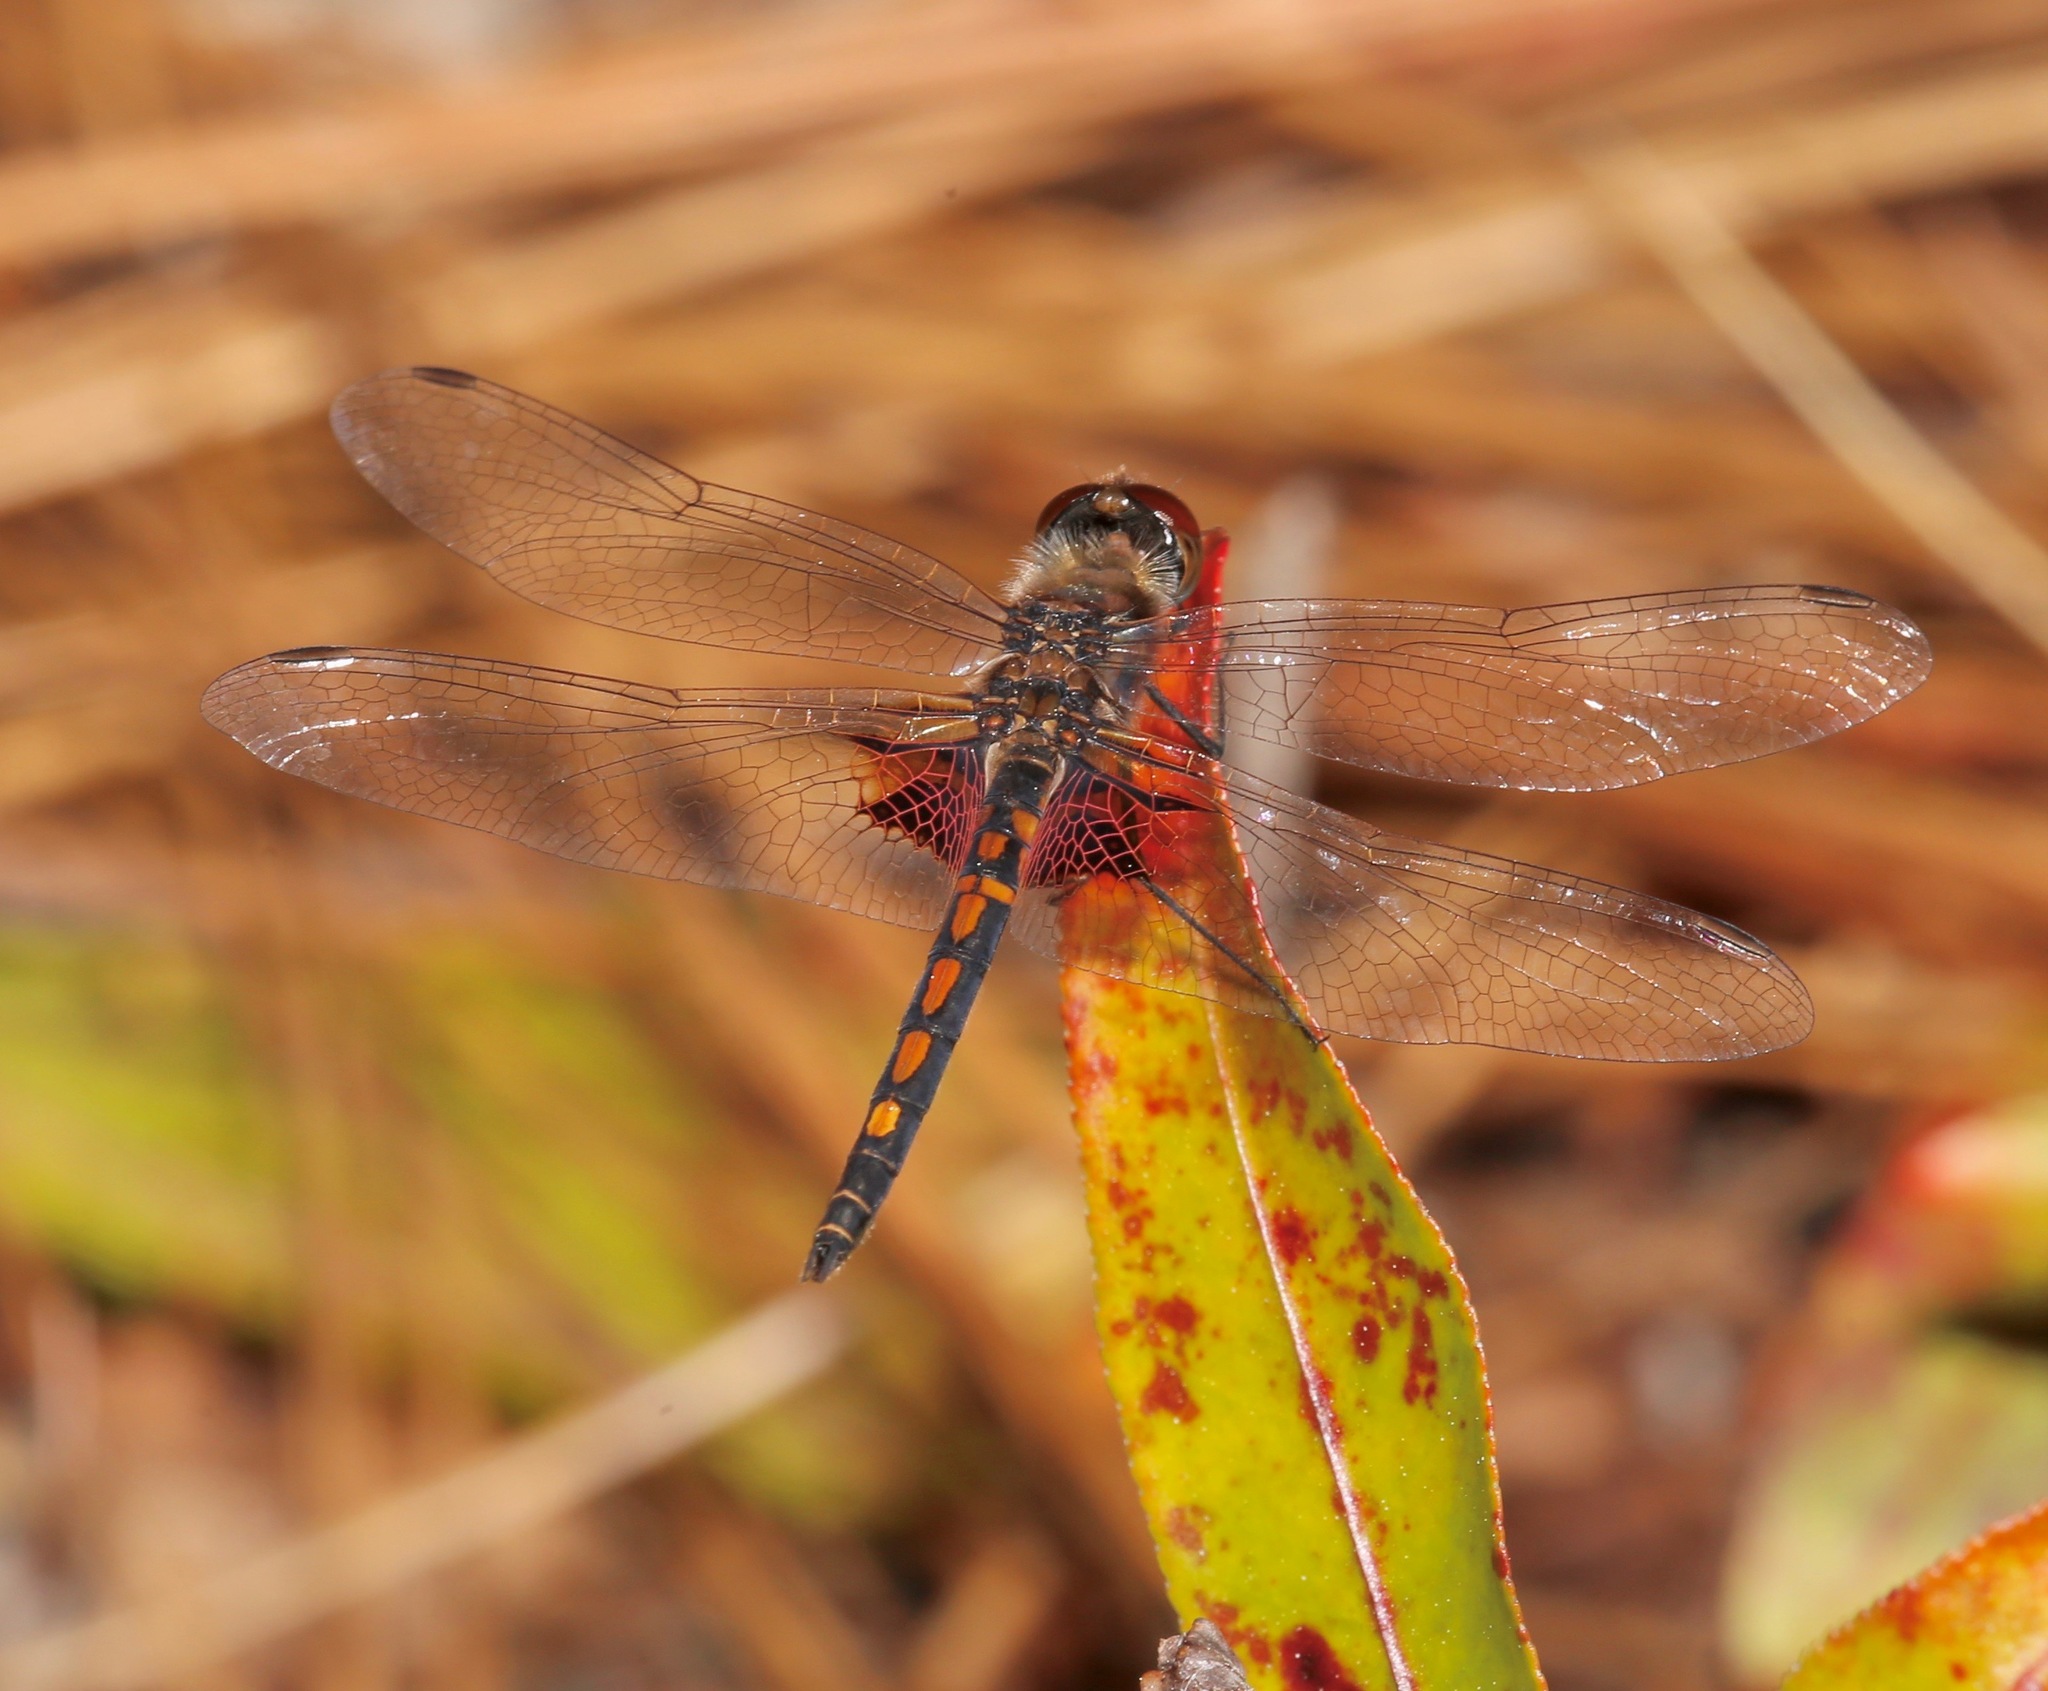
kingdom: Animalia
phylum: Arthropoda
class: Insecta
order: Odonata
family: Libellulidae
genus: Celithemis
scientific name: Celithemis ornata
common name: Ornate pennant
